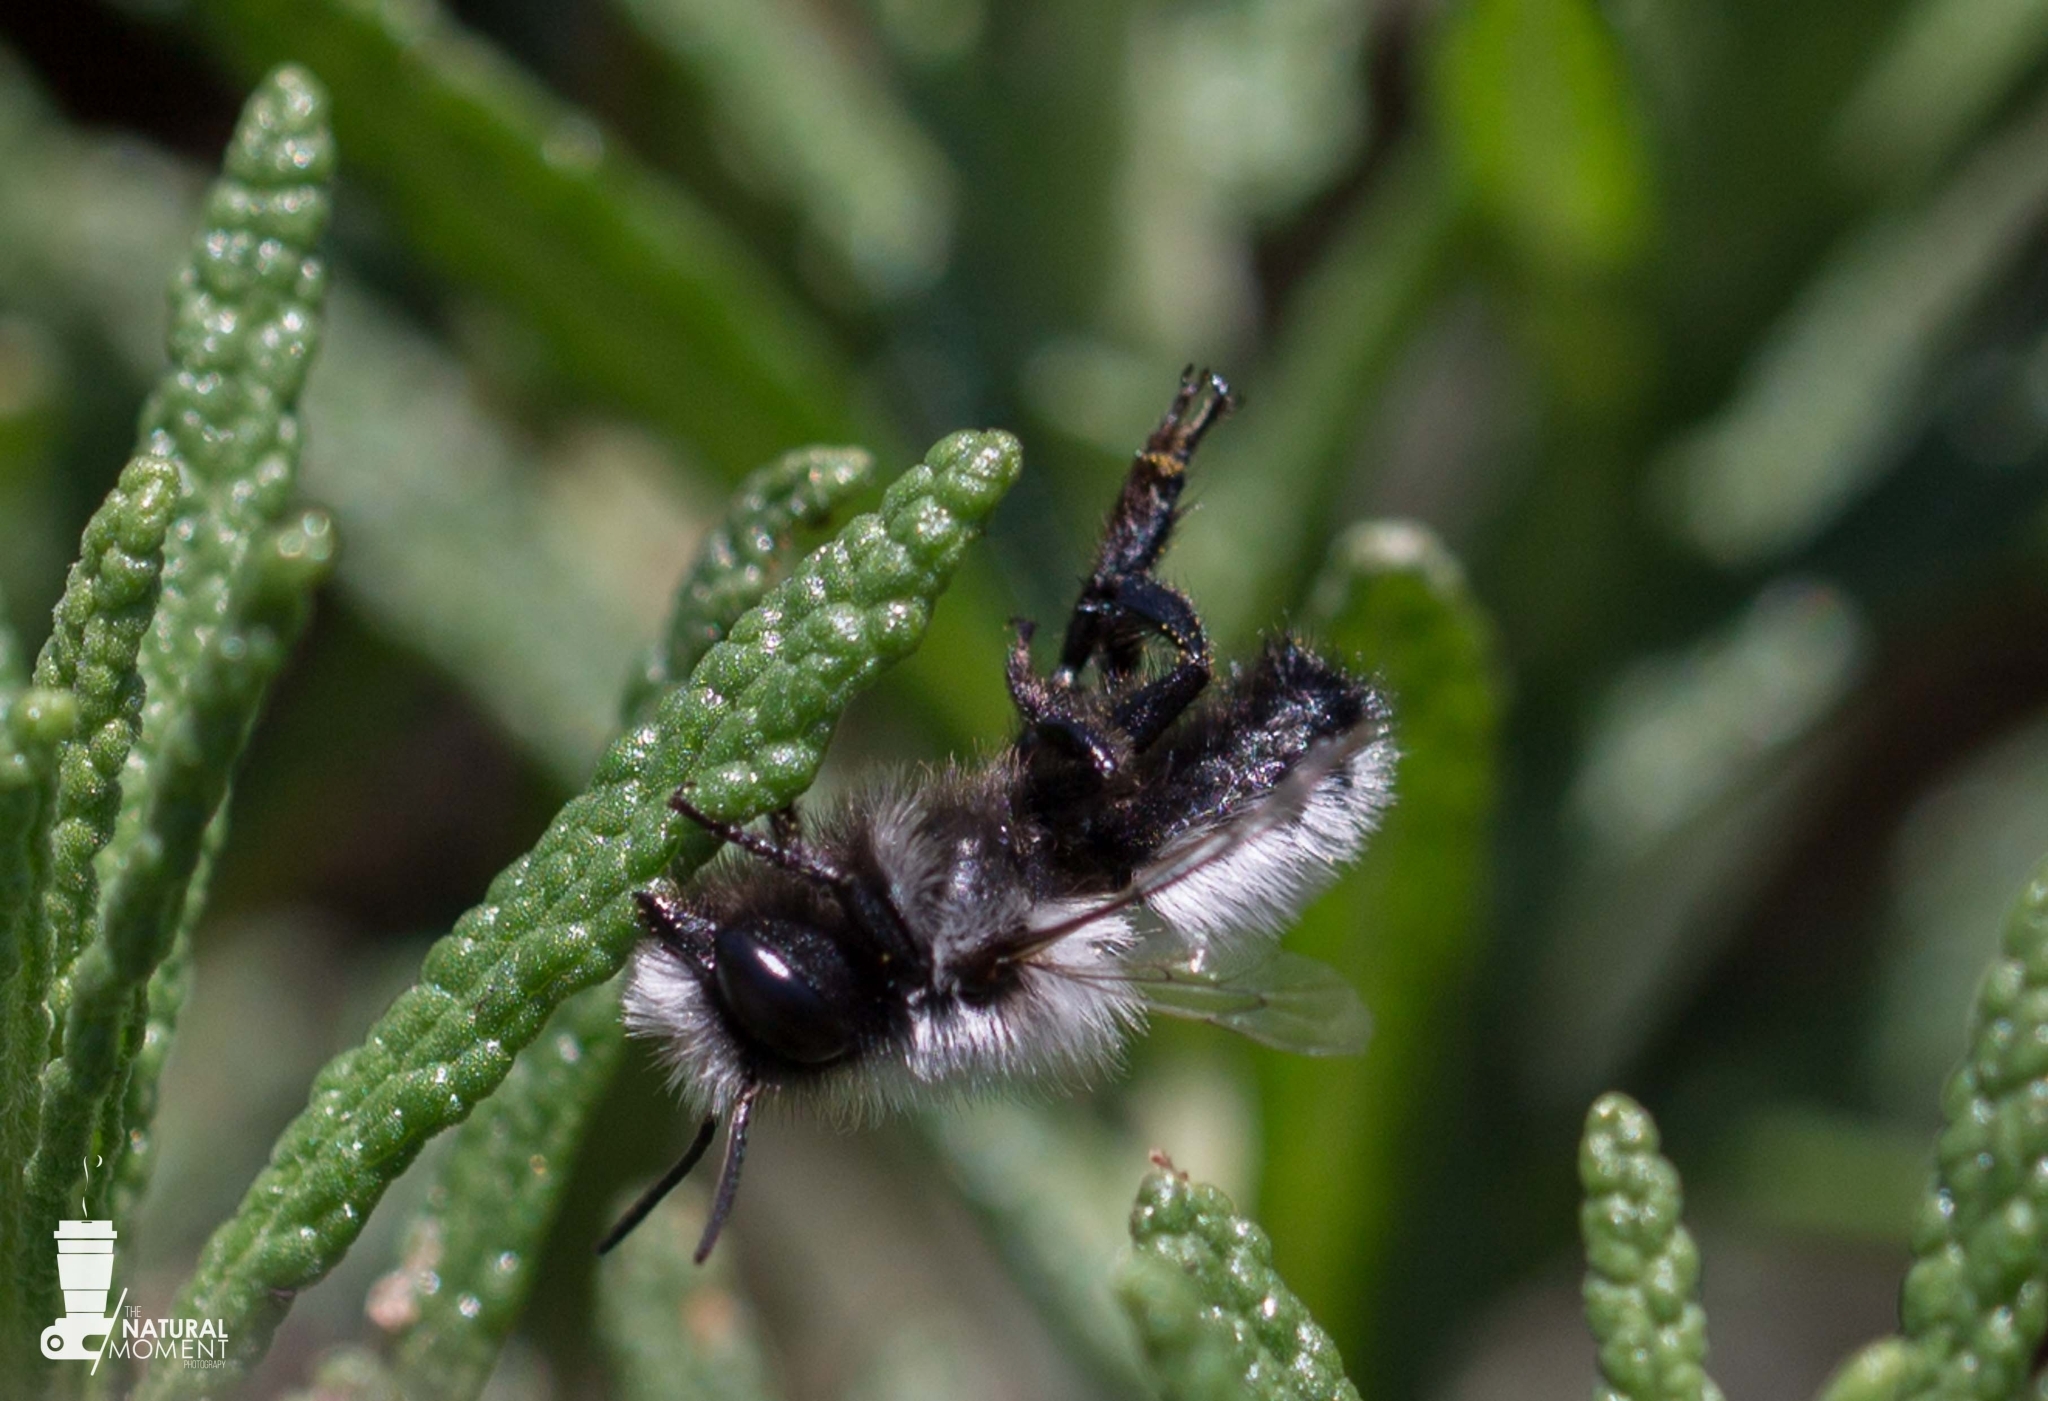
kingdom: Animalia
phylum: Arthropoda
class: Insecta
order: Hymenoptera
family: Megachilidae
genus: Megachile
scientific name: Megachile saulcyi
